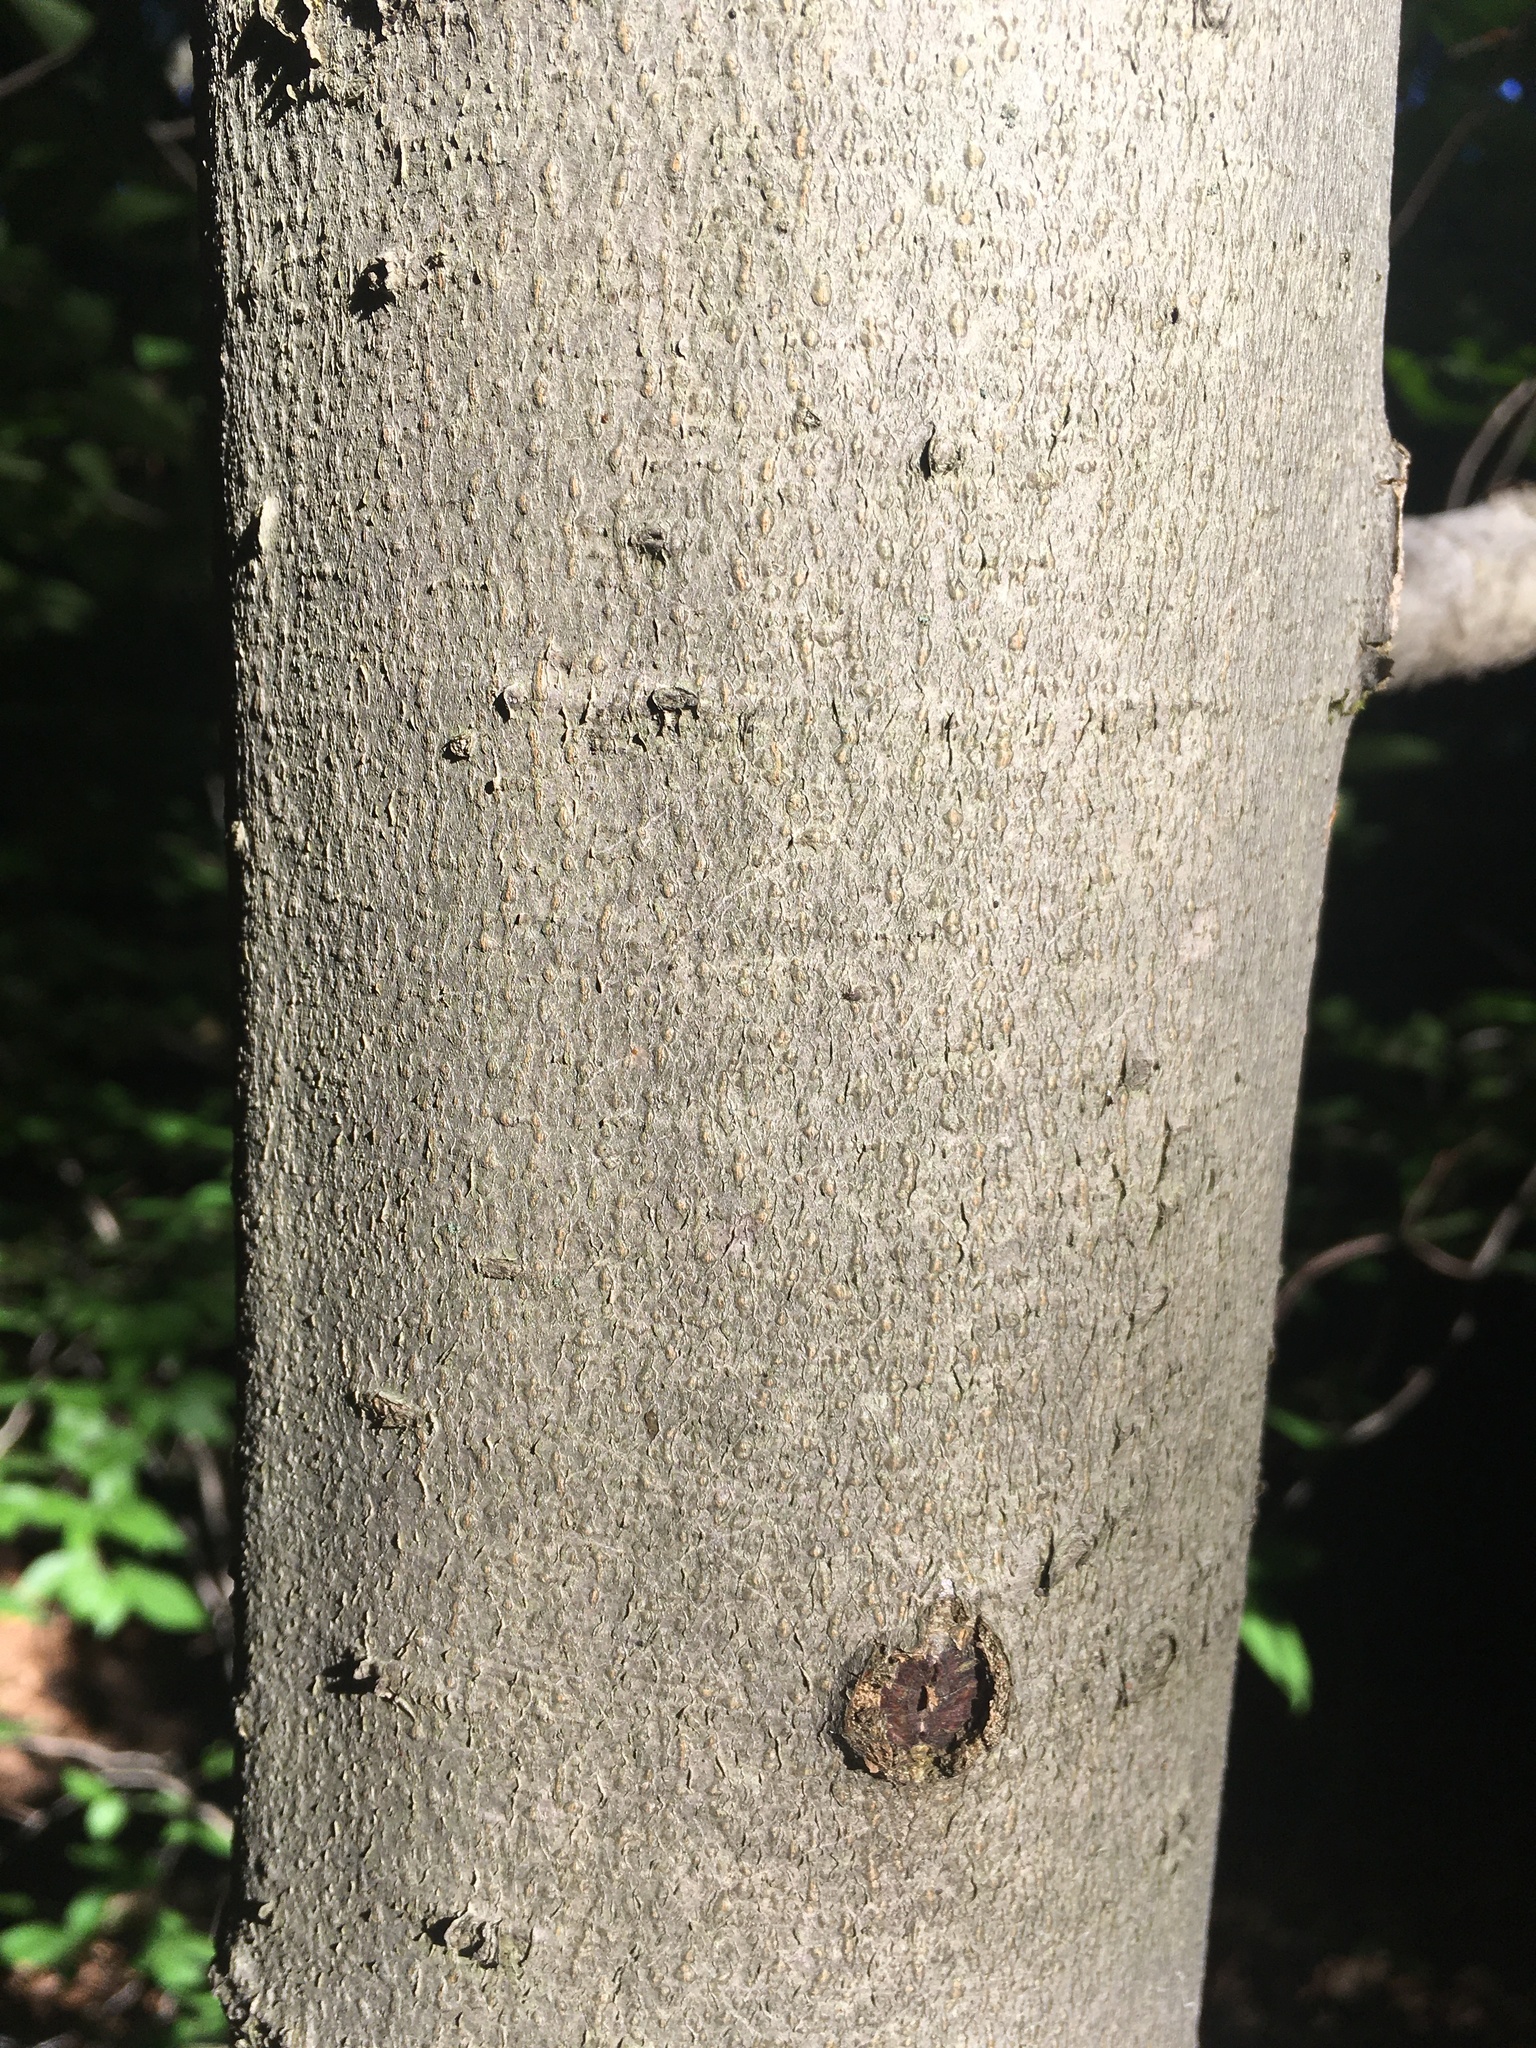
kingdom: Plantae
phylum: Tracheophyta
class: Magnoliopsida
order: Fagales
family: Fagaceae
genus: Fagus
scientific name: Fagus grandifolia
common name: American beech
